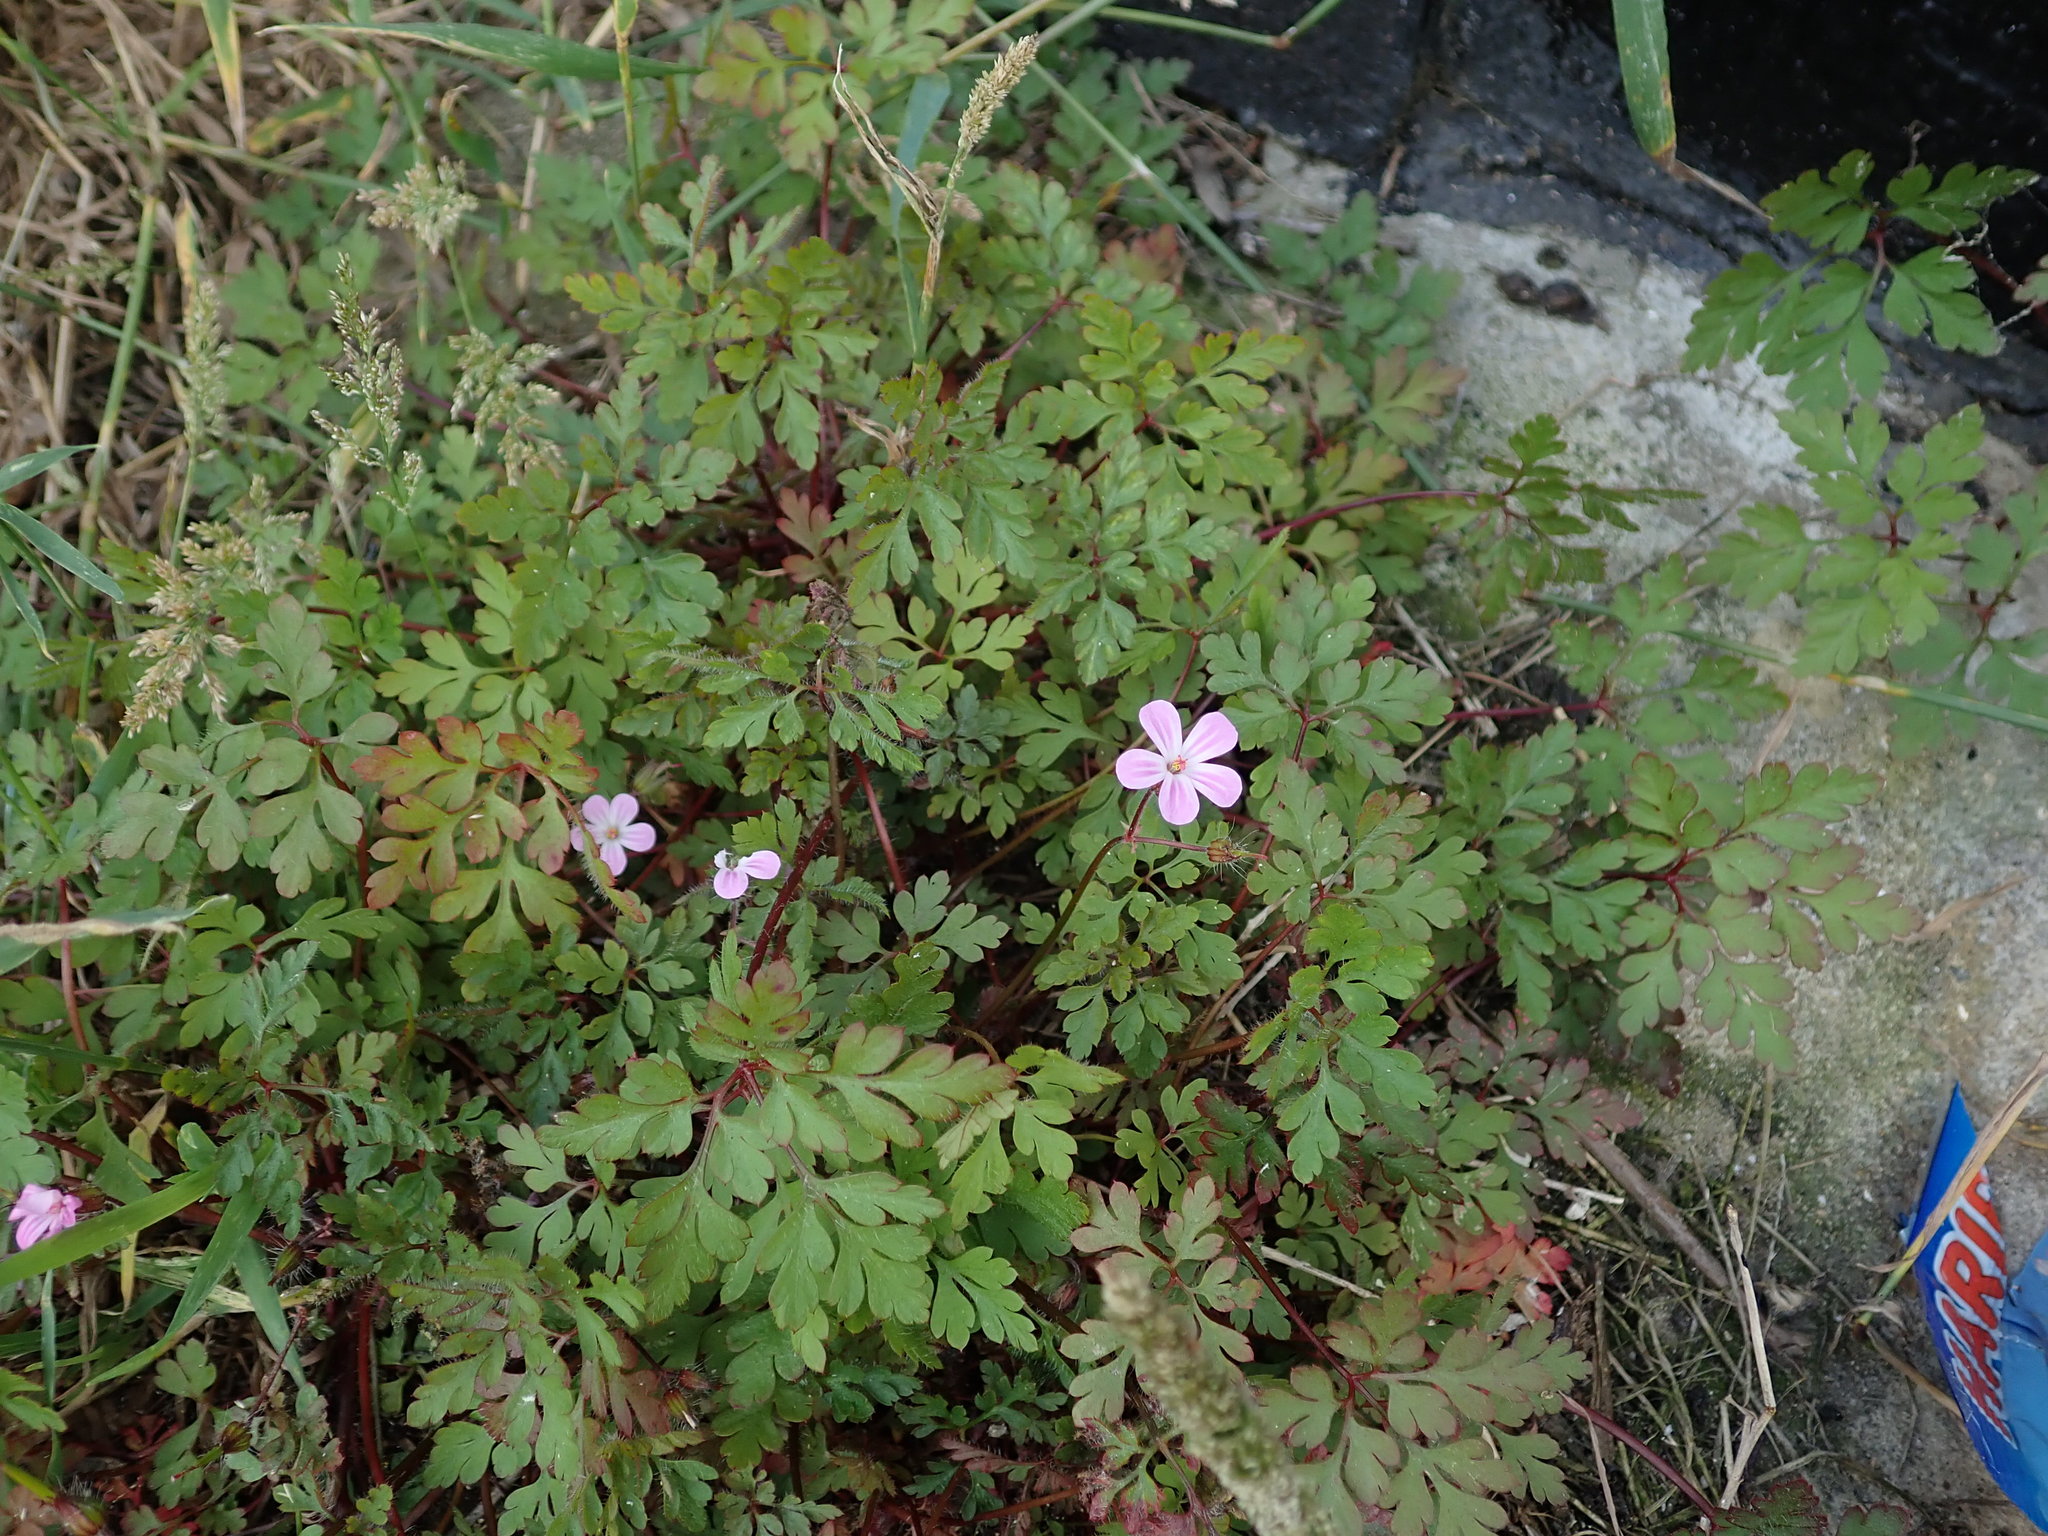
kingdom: Plantae
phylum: Tracheophyta
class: Magnoliopsida
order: Geraniales
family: Geraniaceae
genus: Geranium
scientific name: Geranium robertianum
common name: Herb-robert
